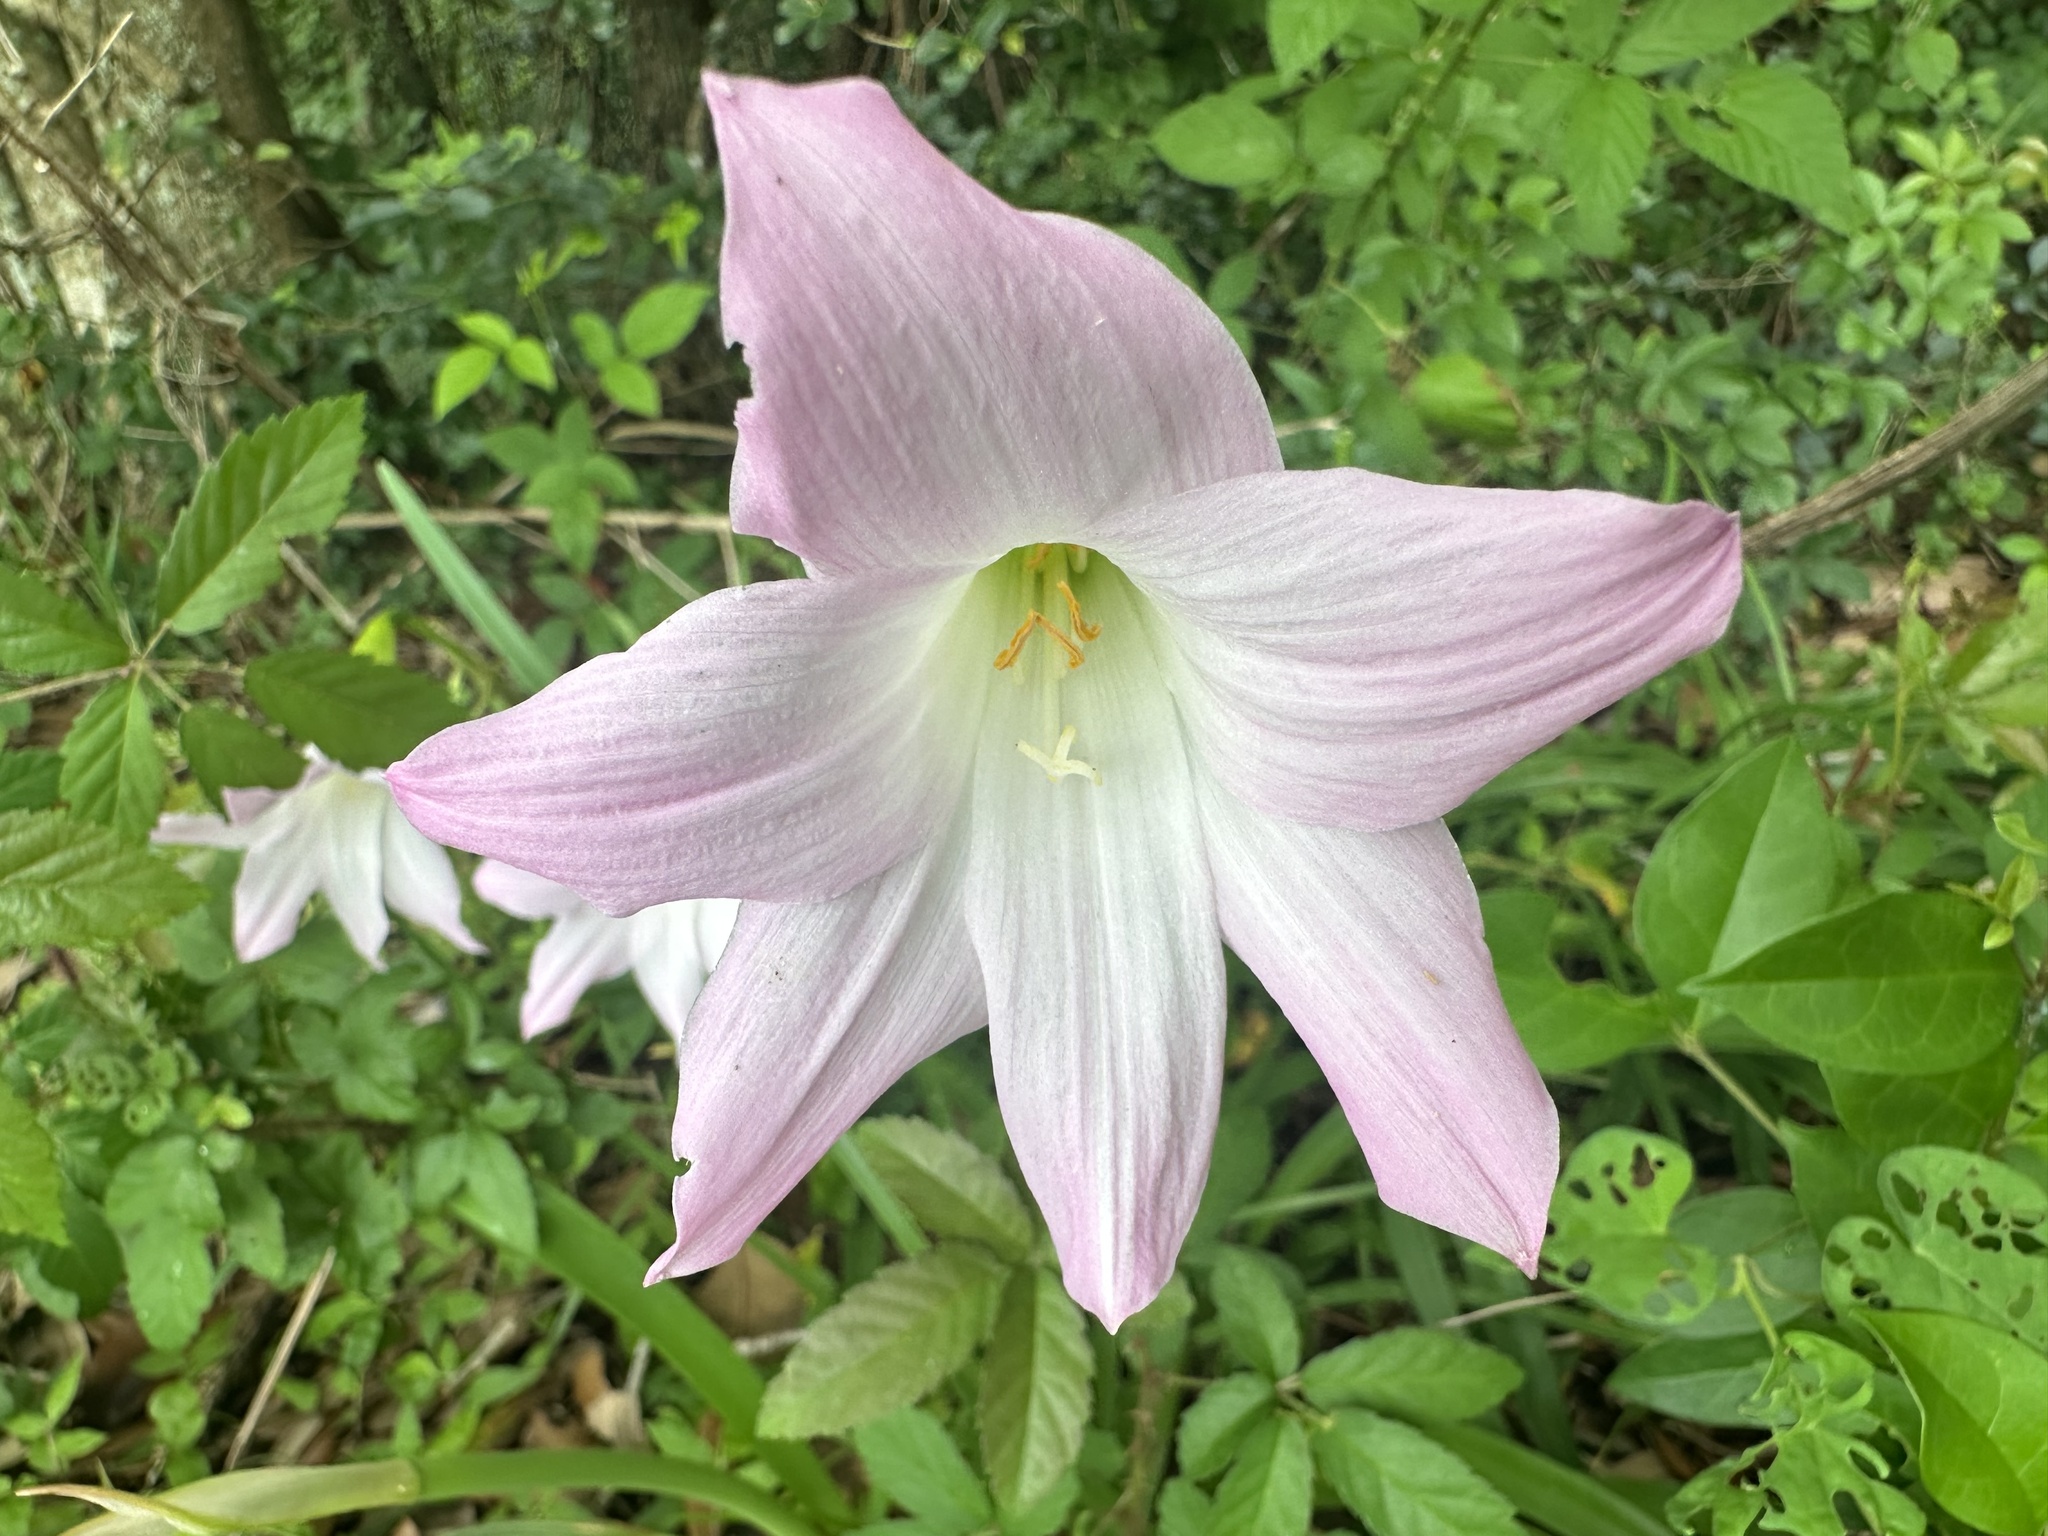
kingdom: Plantae
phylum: Tracheophyta
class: Liliopsida
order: Asparagales
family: Amaryllidaceae
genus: Zephyranthes
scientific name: Zephyranthes robusta
